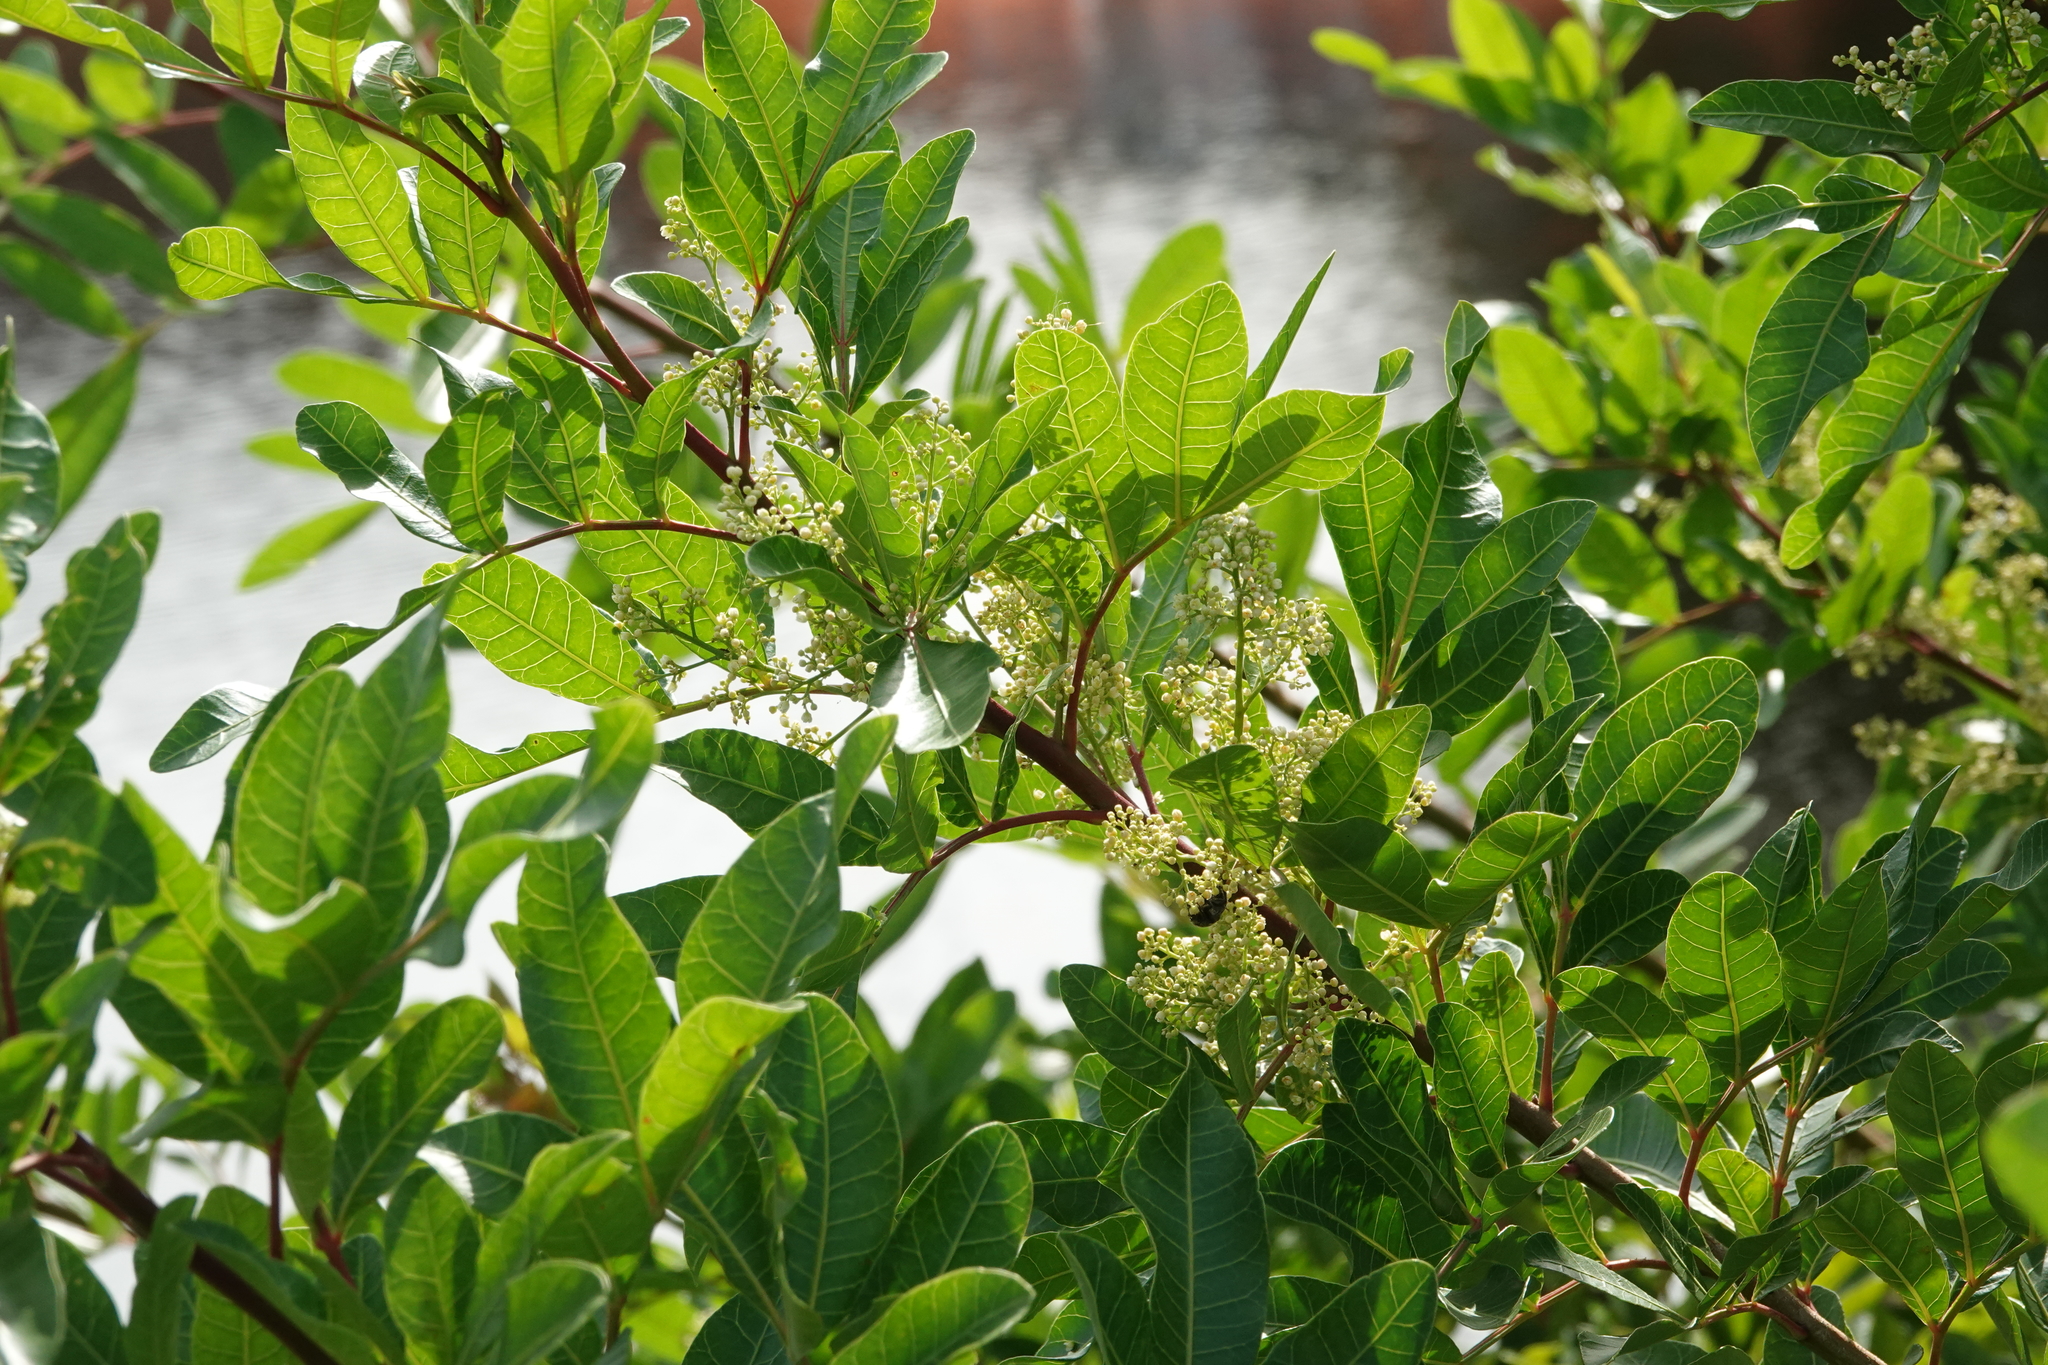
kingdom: Plantae
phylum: Tracheophyta
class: Magnoliopsida
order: Sapindales
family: Anacardiaceae
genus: Schinus
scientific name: Schinus terebinthifolia
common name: Brazilian peppertree
